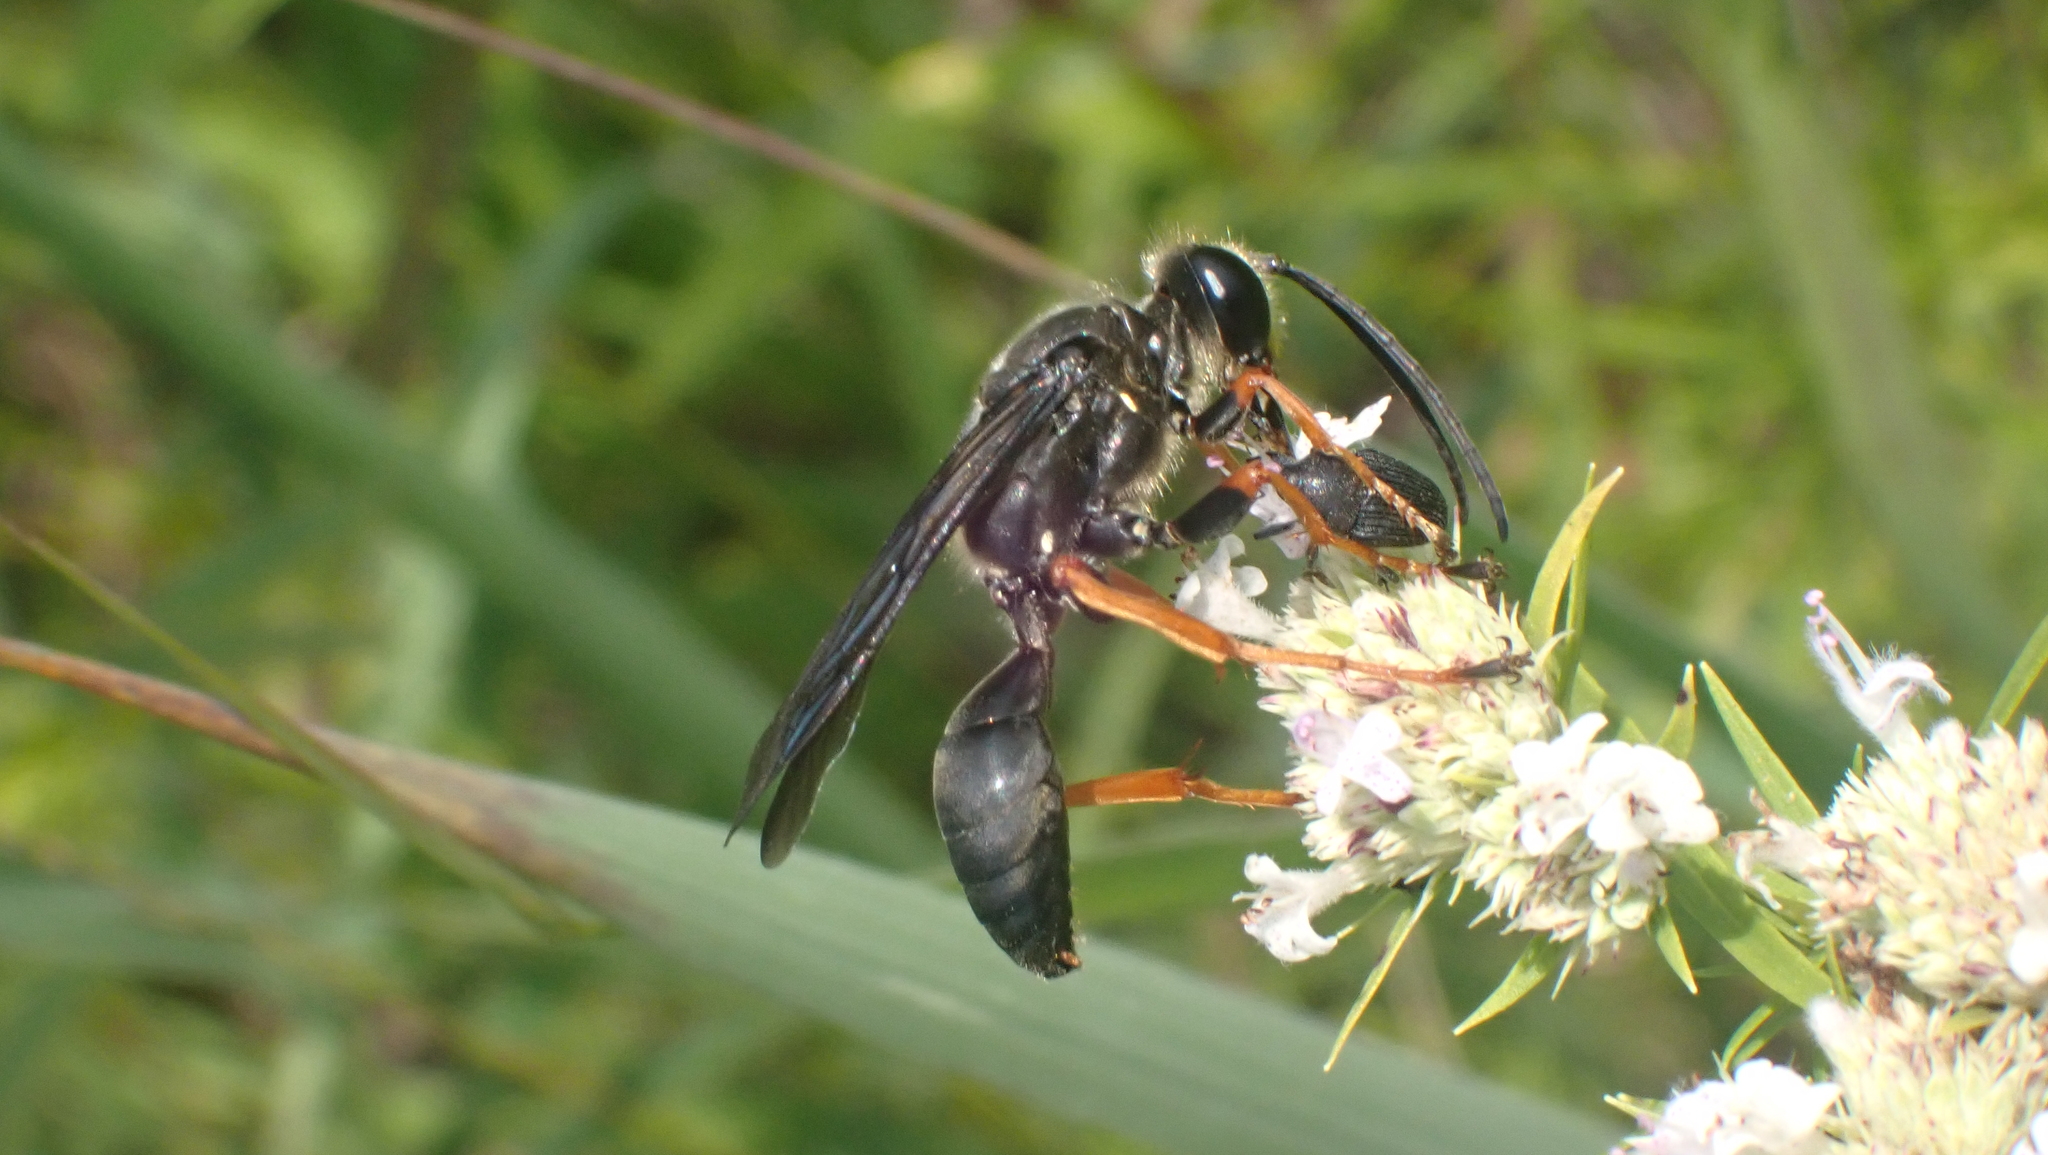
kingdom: Animalia
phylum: Arthropoda
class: Insecta
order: Hymenoptera
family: Sphecidae
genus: Sphex
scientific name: Sphex nudus
